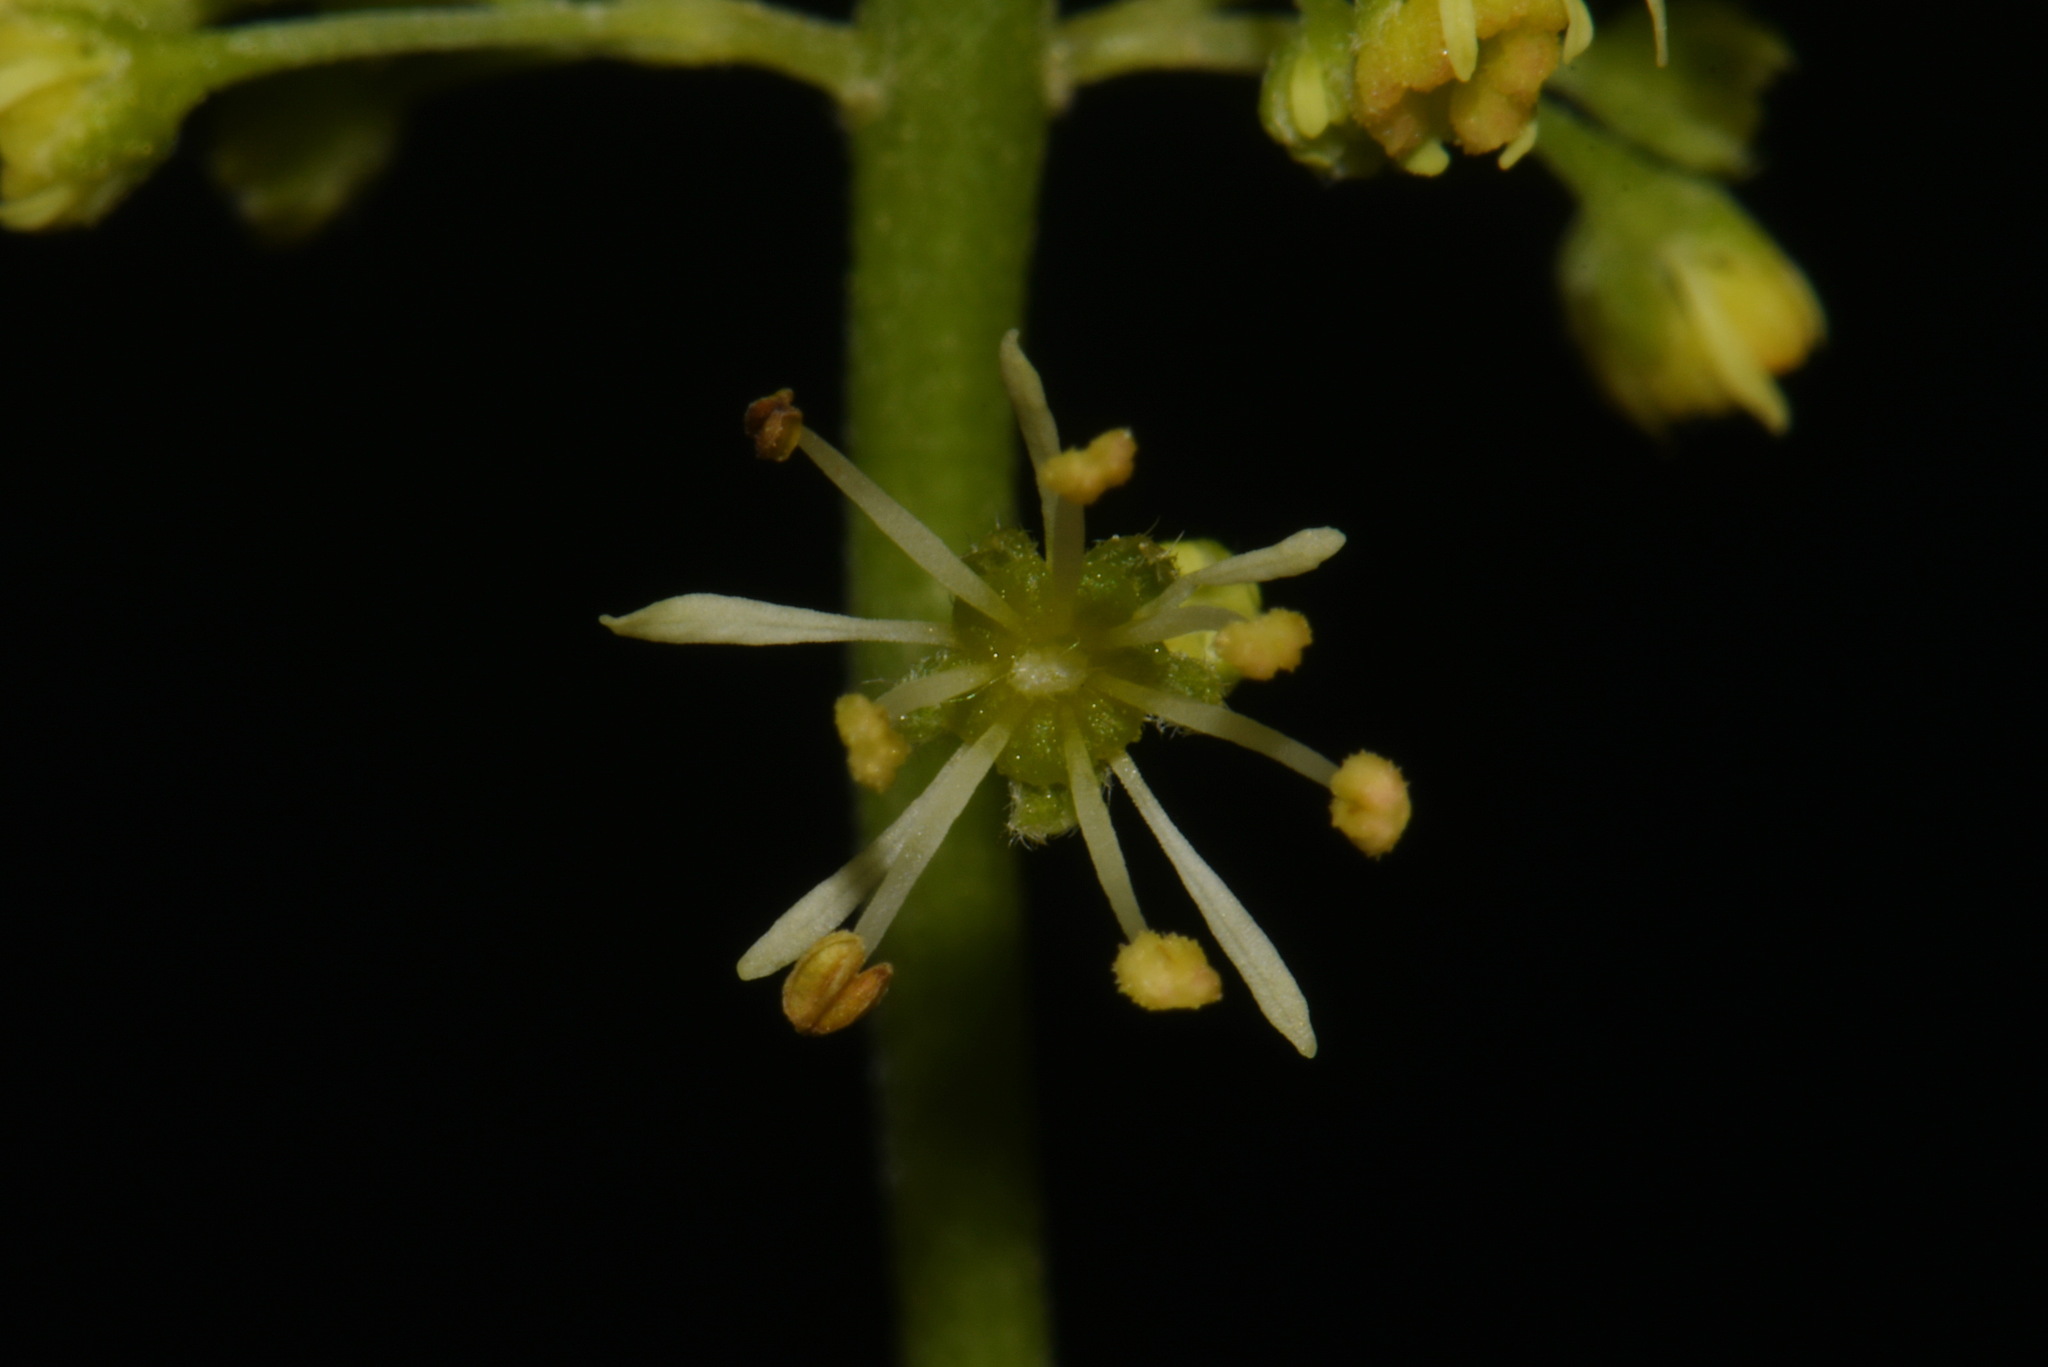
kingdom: Plantae
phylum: Tracheophyta
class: Magnoliopsida
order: Sapindales
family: Sapindaceae
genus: Acer
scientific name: Acer spicatum
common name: Mountain maple
